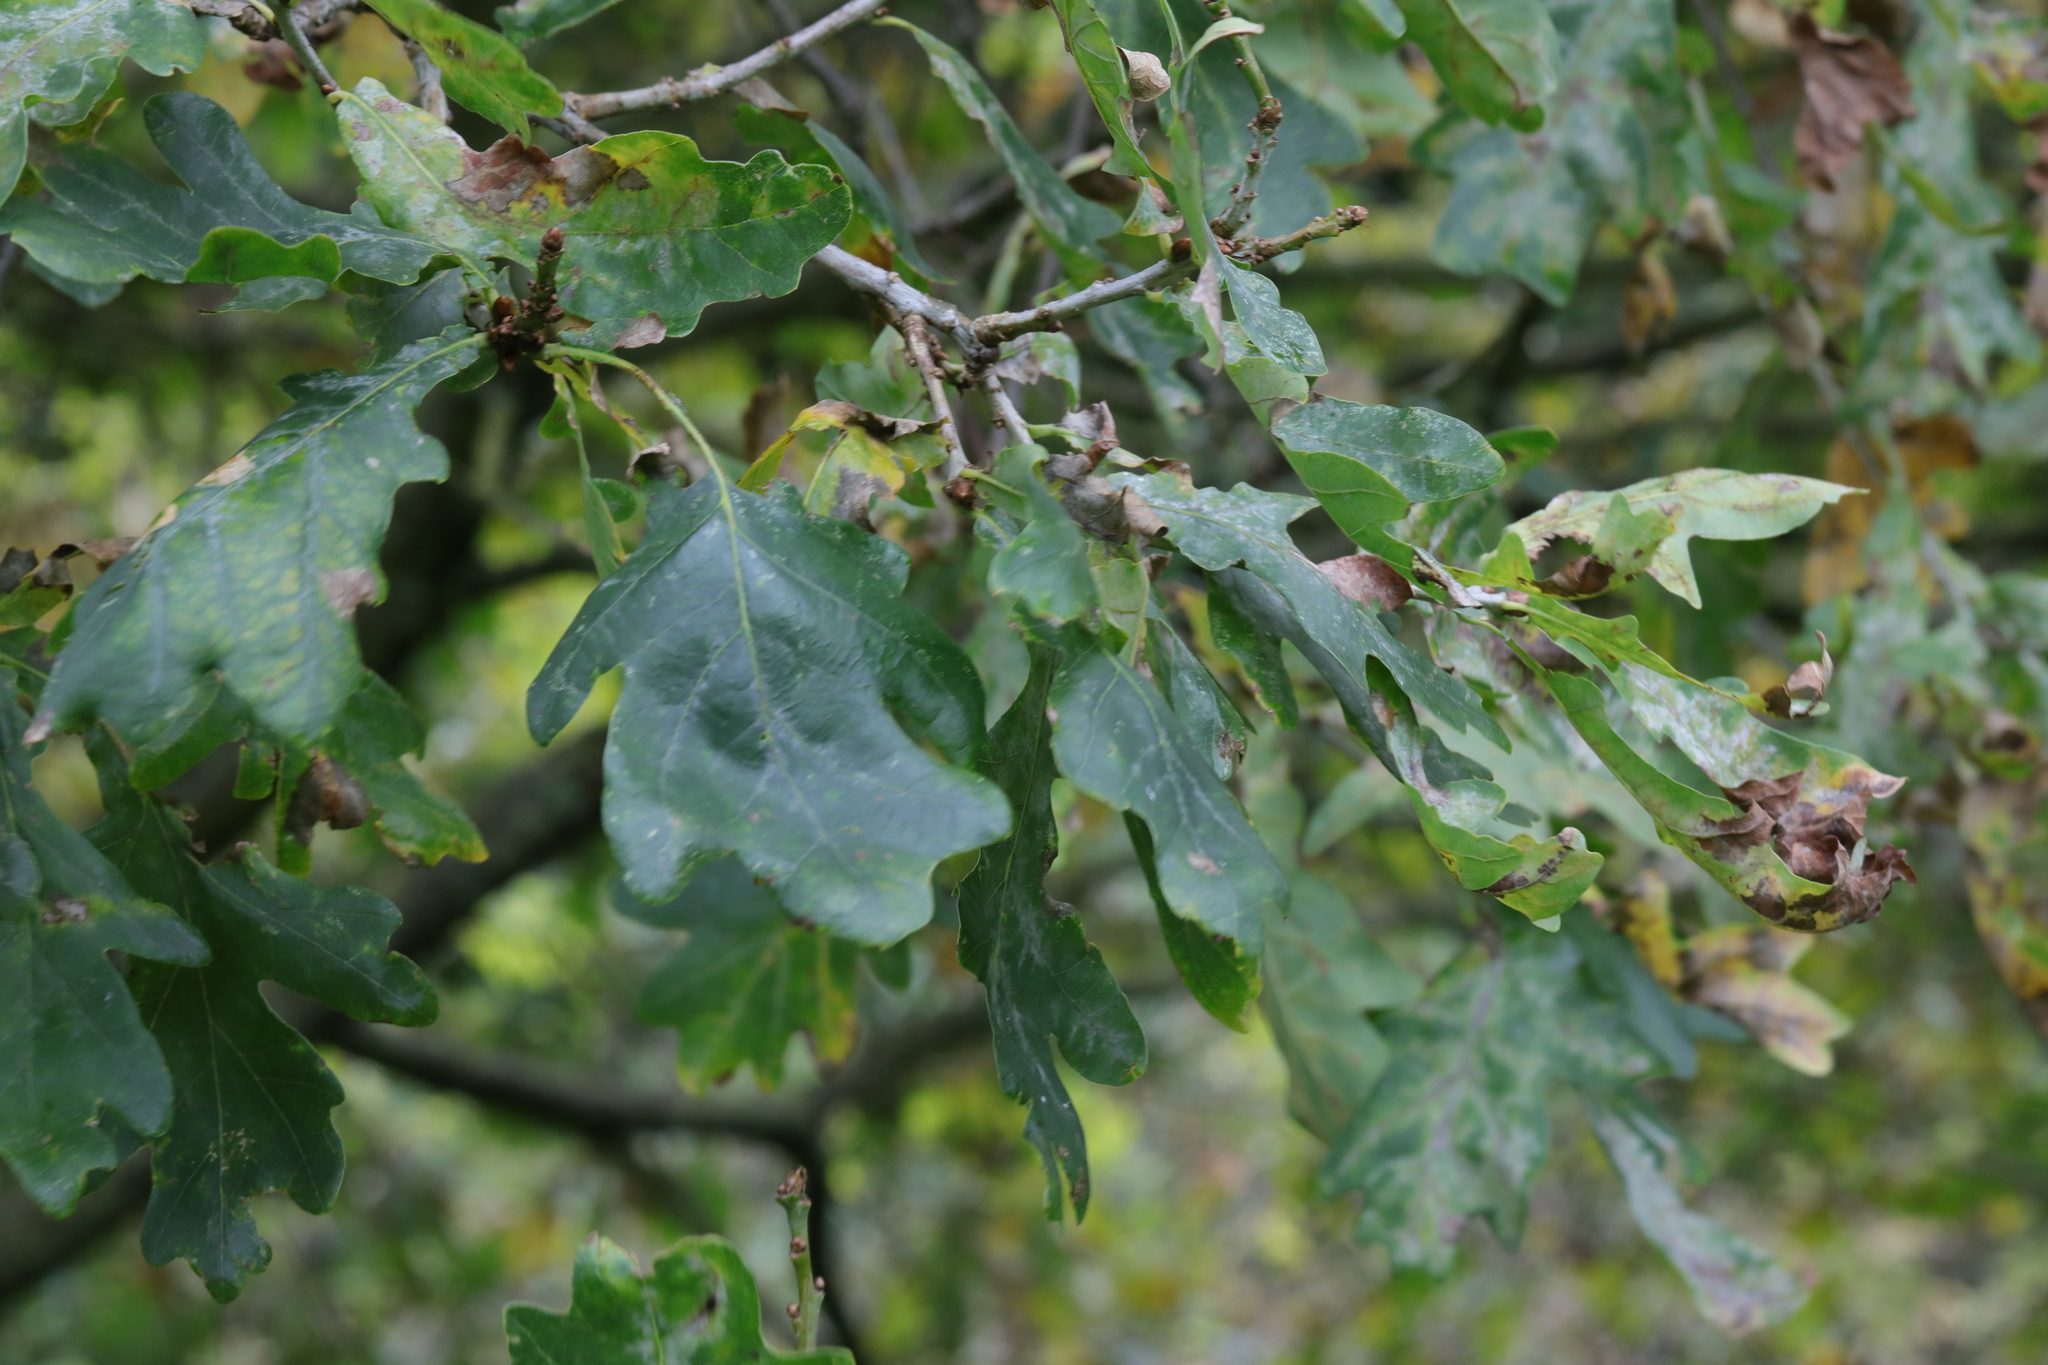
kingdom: Plantae
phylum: Tracheophyta
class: Magnoliopsida
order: Fagales
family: Fagaceae
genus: Quercus
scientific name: Quercus robur
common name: Pedunculate oak
